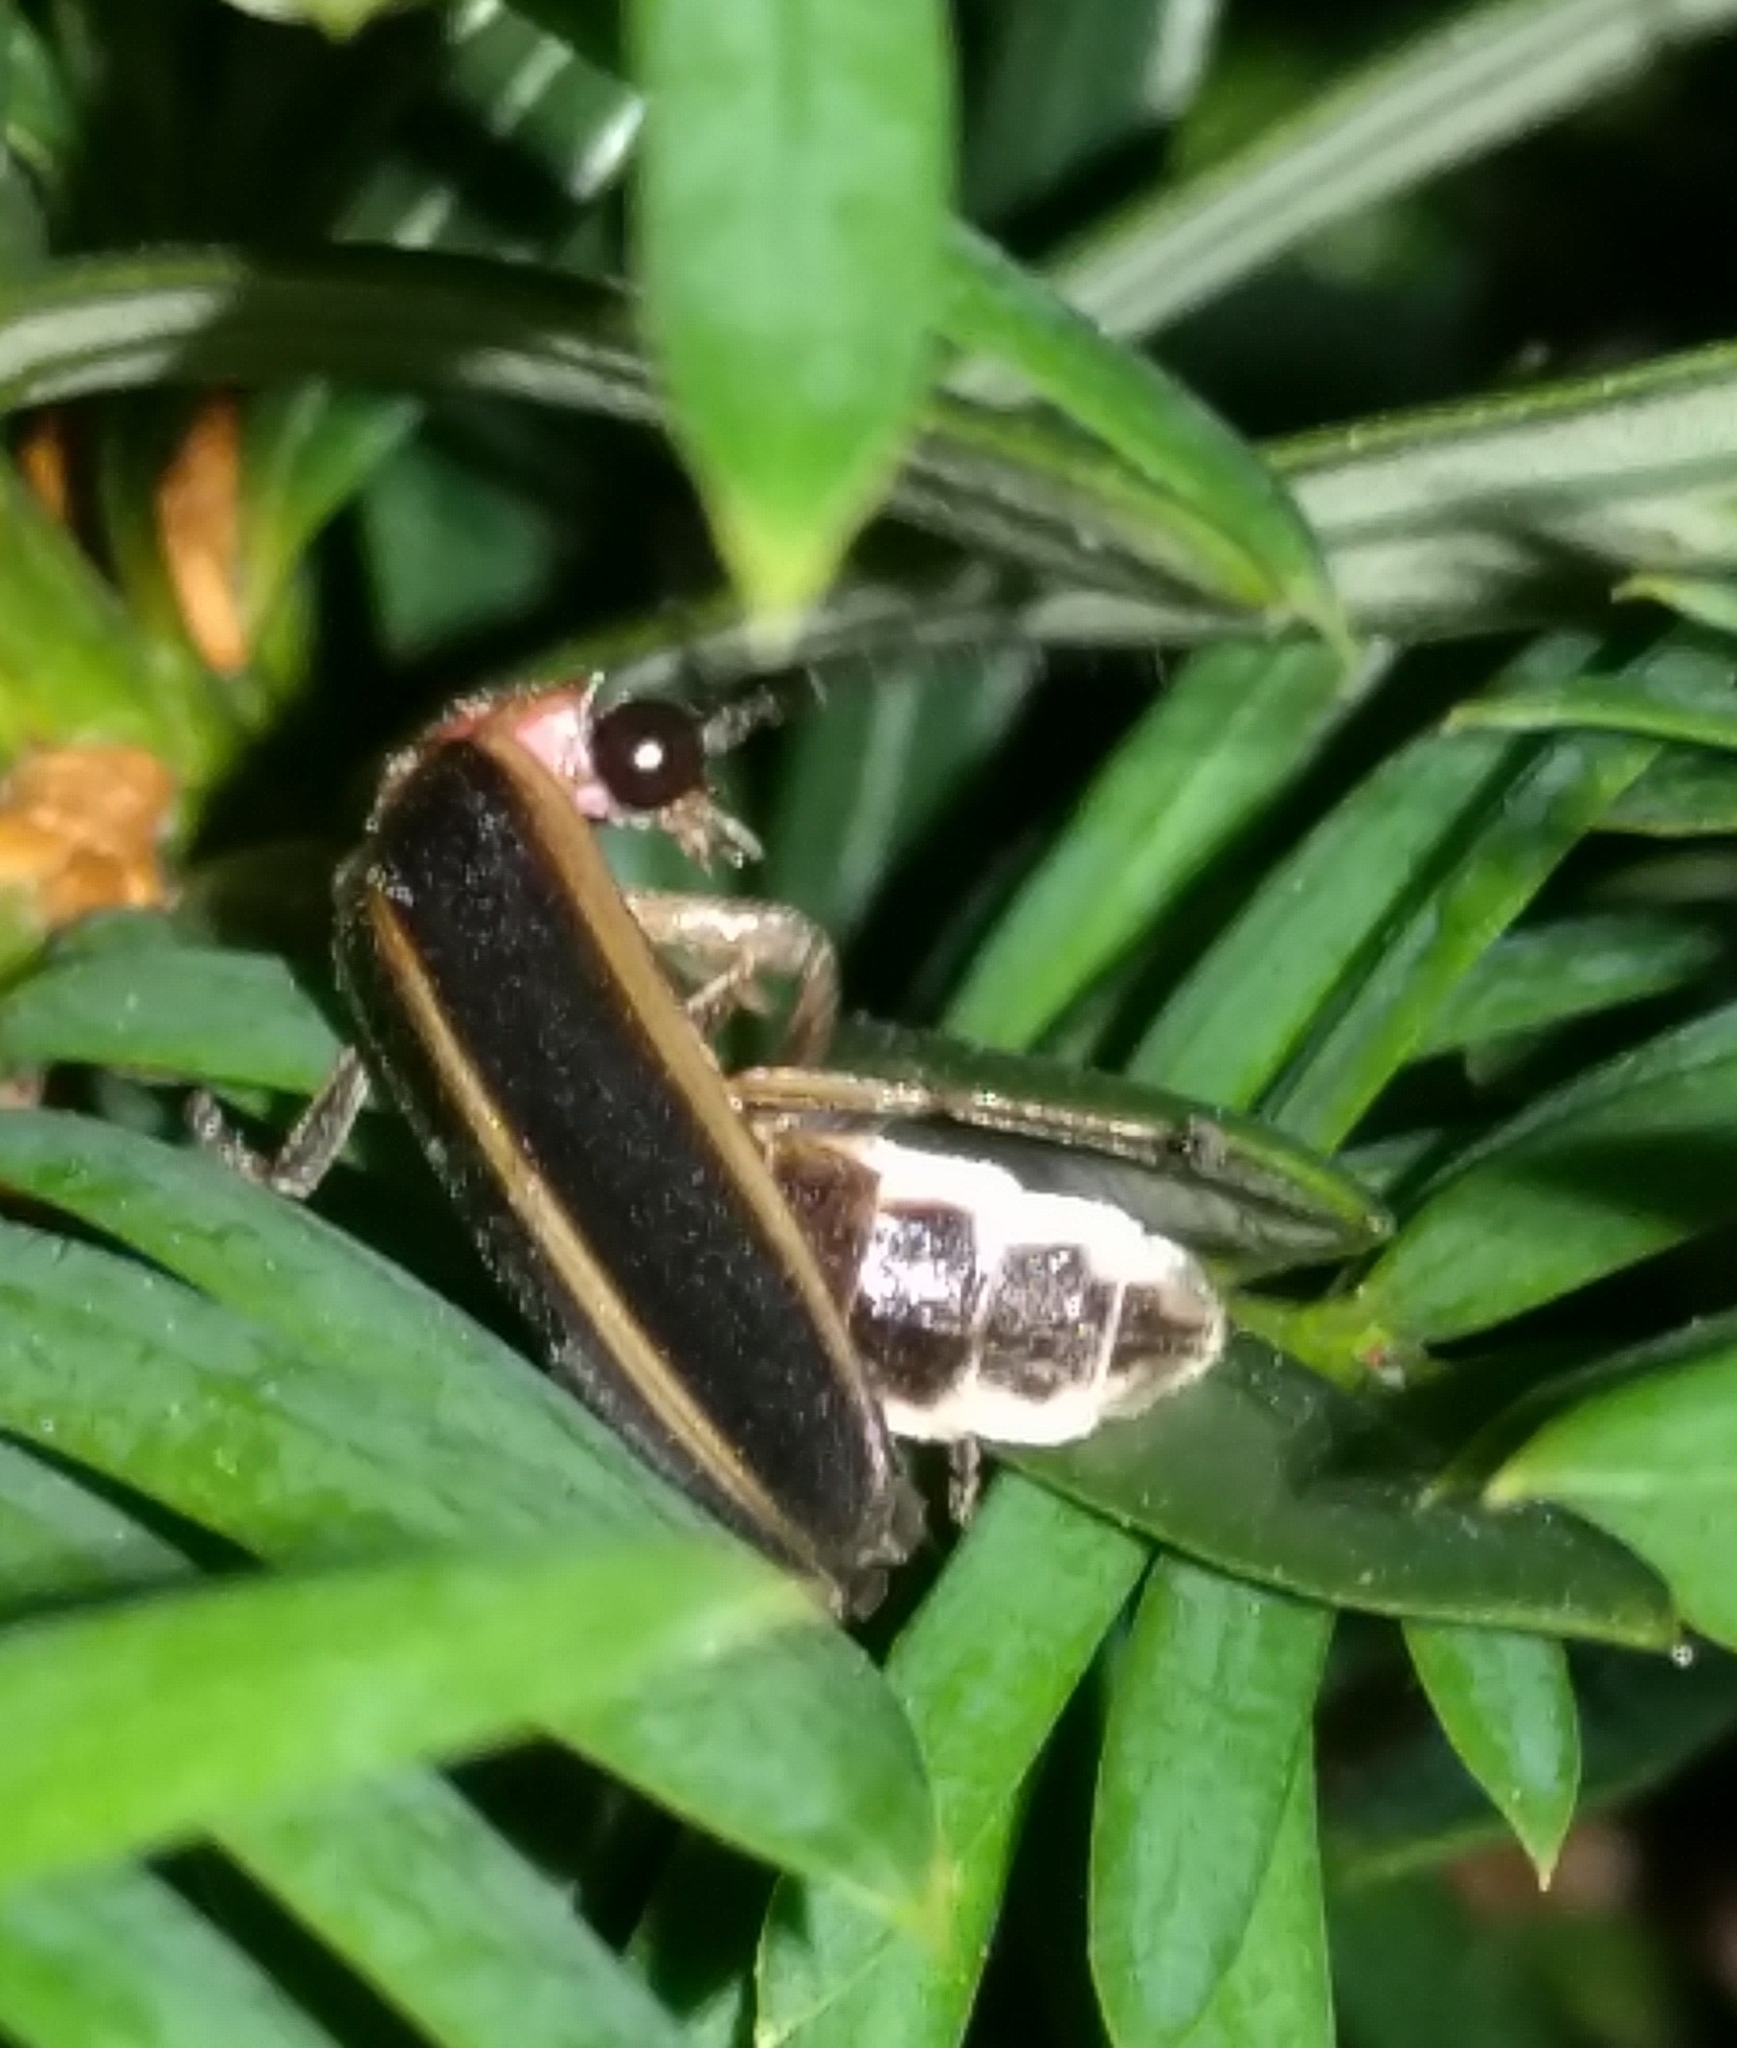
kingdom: Animalia
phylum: Arthropoda
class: Insecta
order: Coleoptera
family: Lampyridae
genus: Photinus
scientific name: Photinus pyralis
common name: Big dipper firefly
